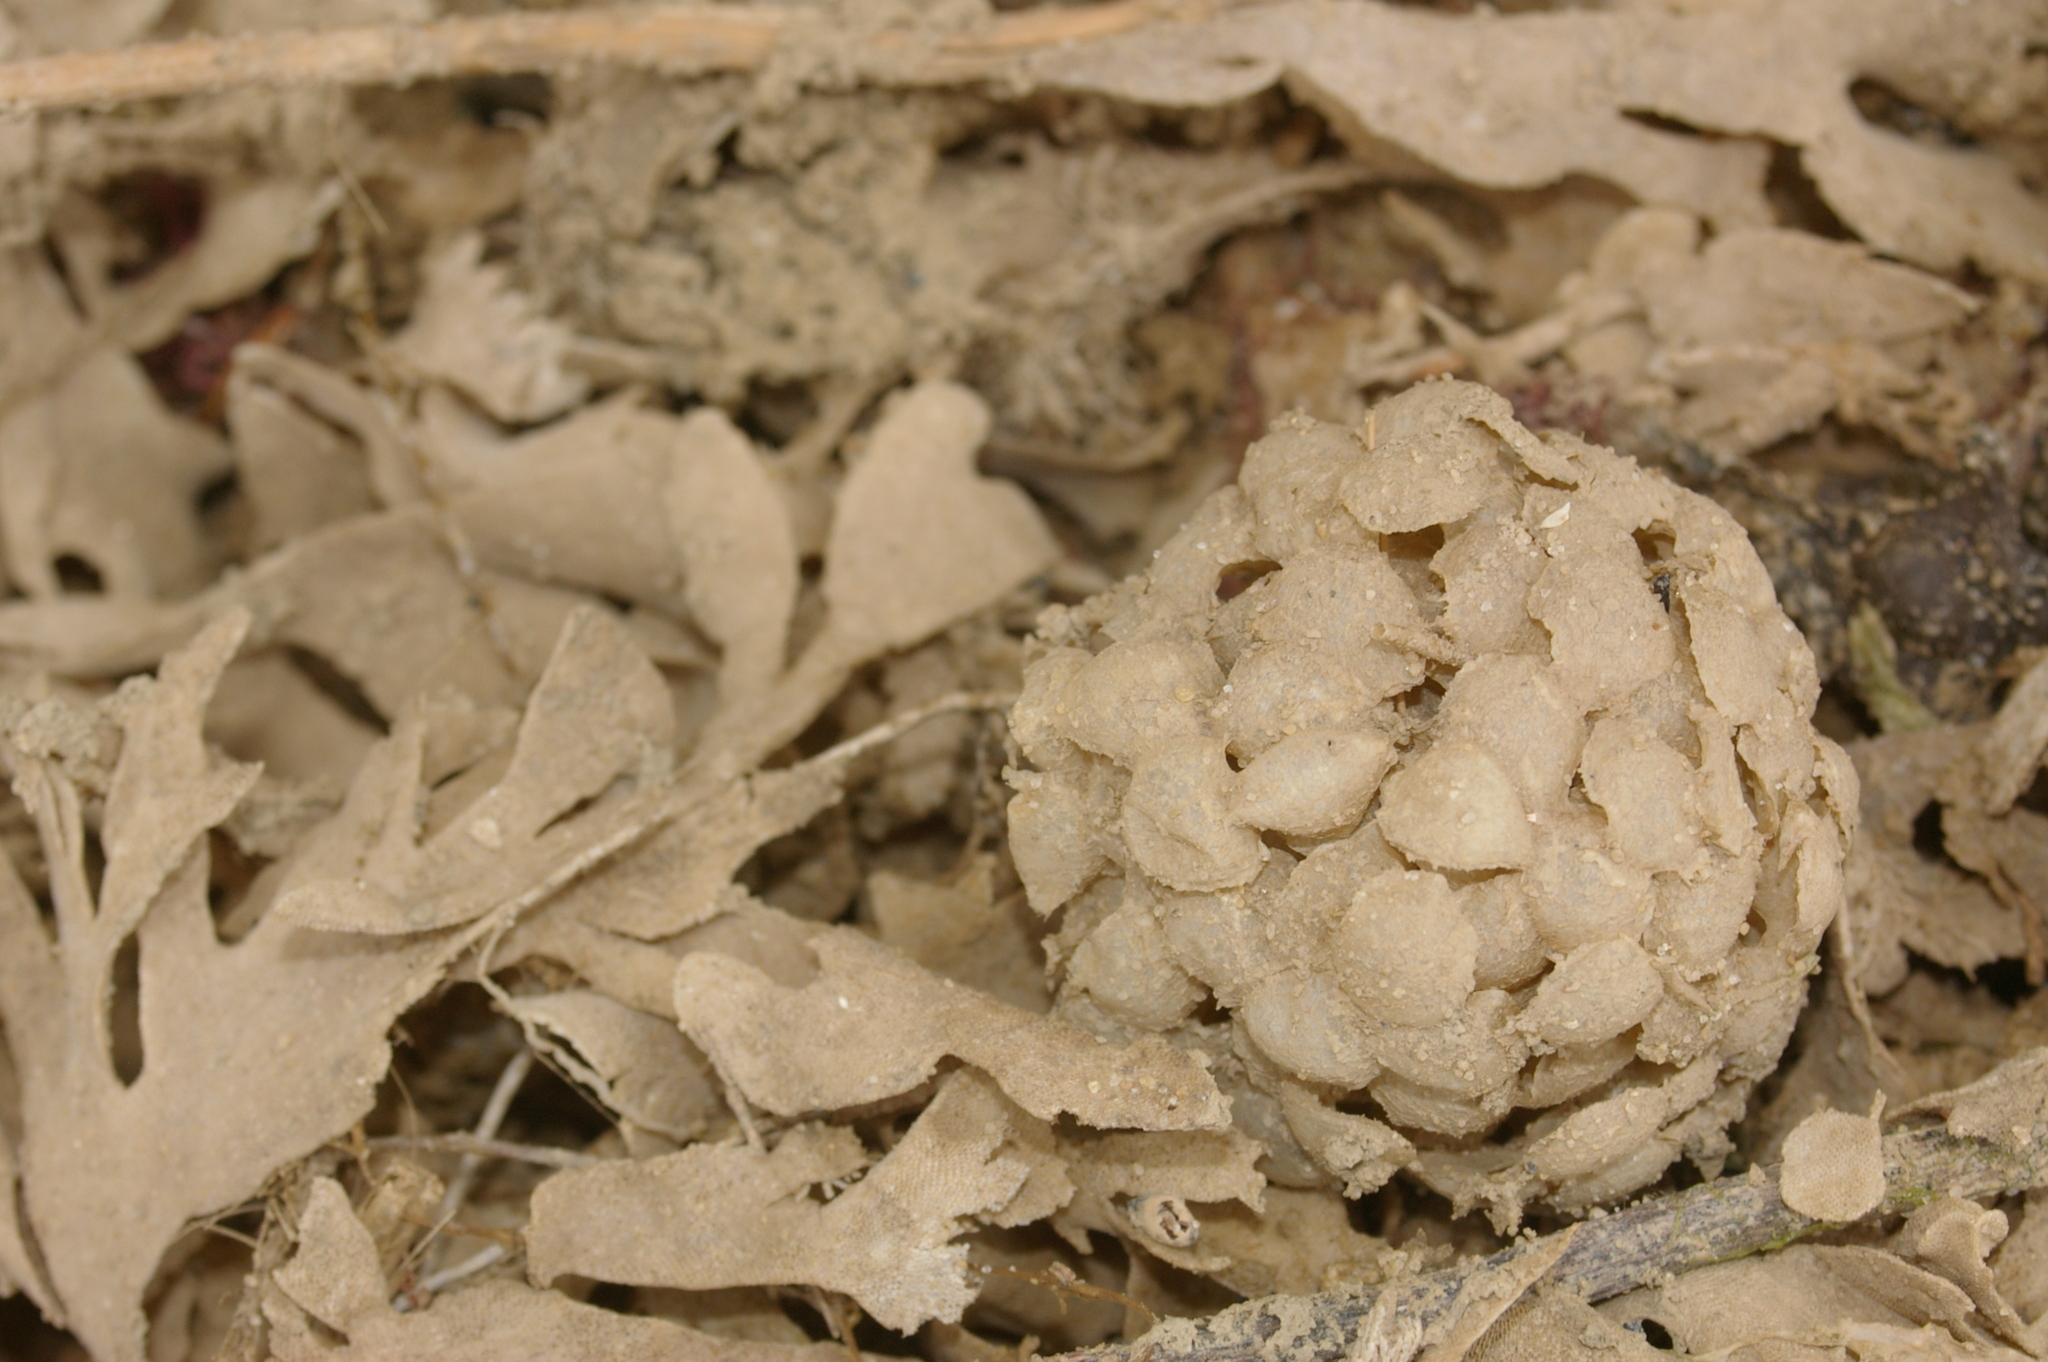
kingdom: Animalia
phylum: Mollusca
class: Gastropoda
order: Neogastropoda
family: Buccinidae
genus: Buccinum
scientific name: Buccinum undatum
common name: Common whelk
